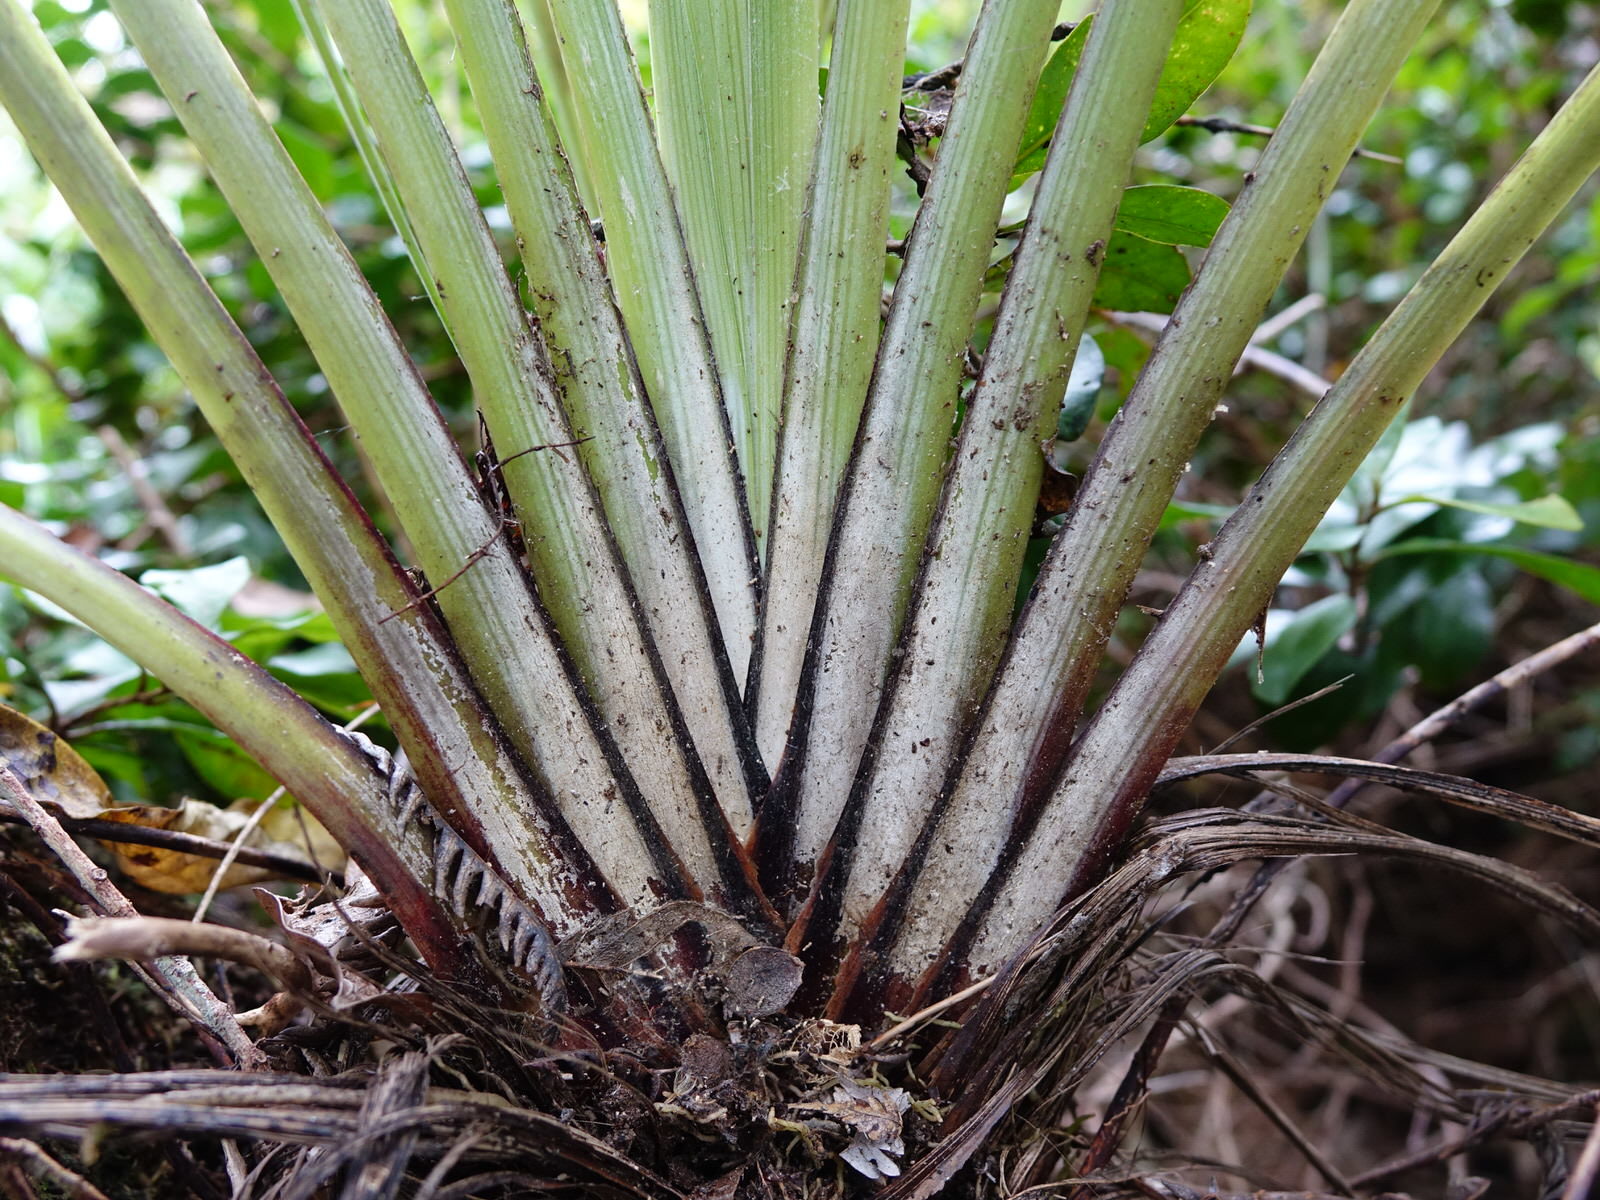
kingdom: Plantae
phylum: Tracheophyta
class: Liliopsida
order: Asparagales
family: Asteliaceae
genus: Astelia
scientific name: Astelia solandri
